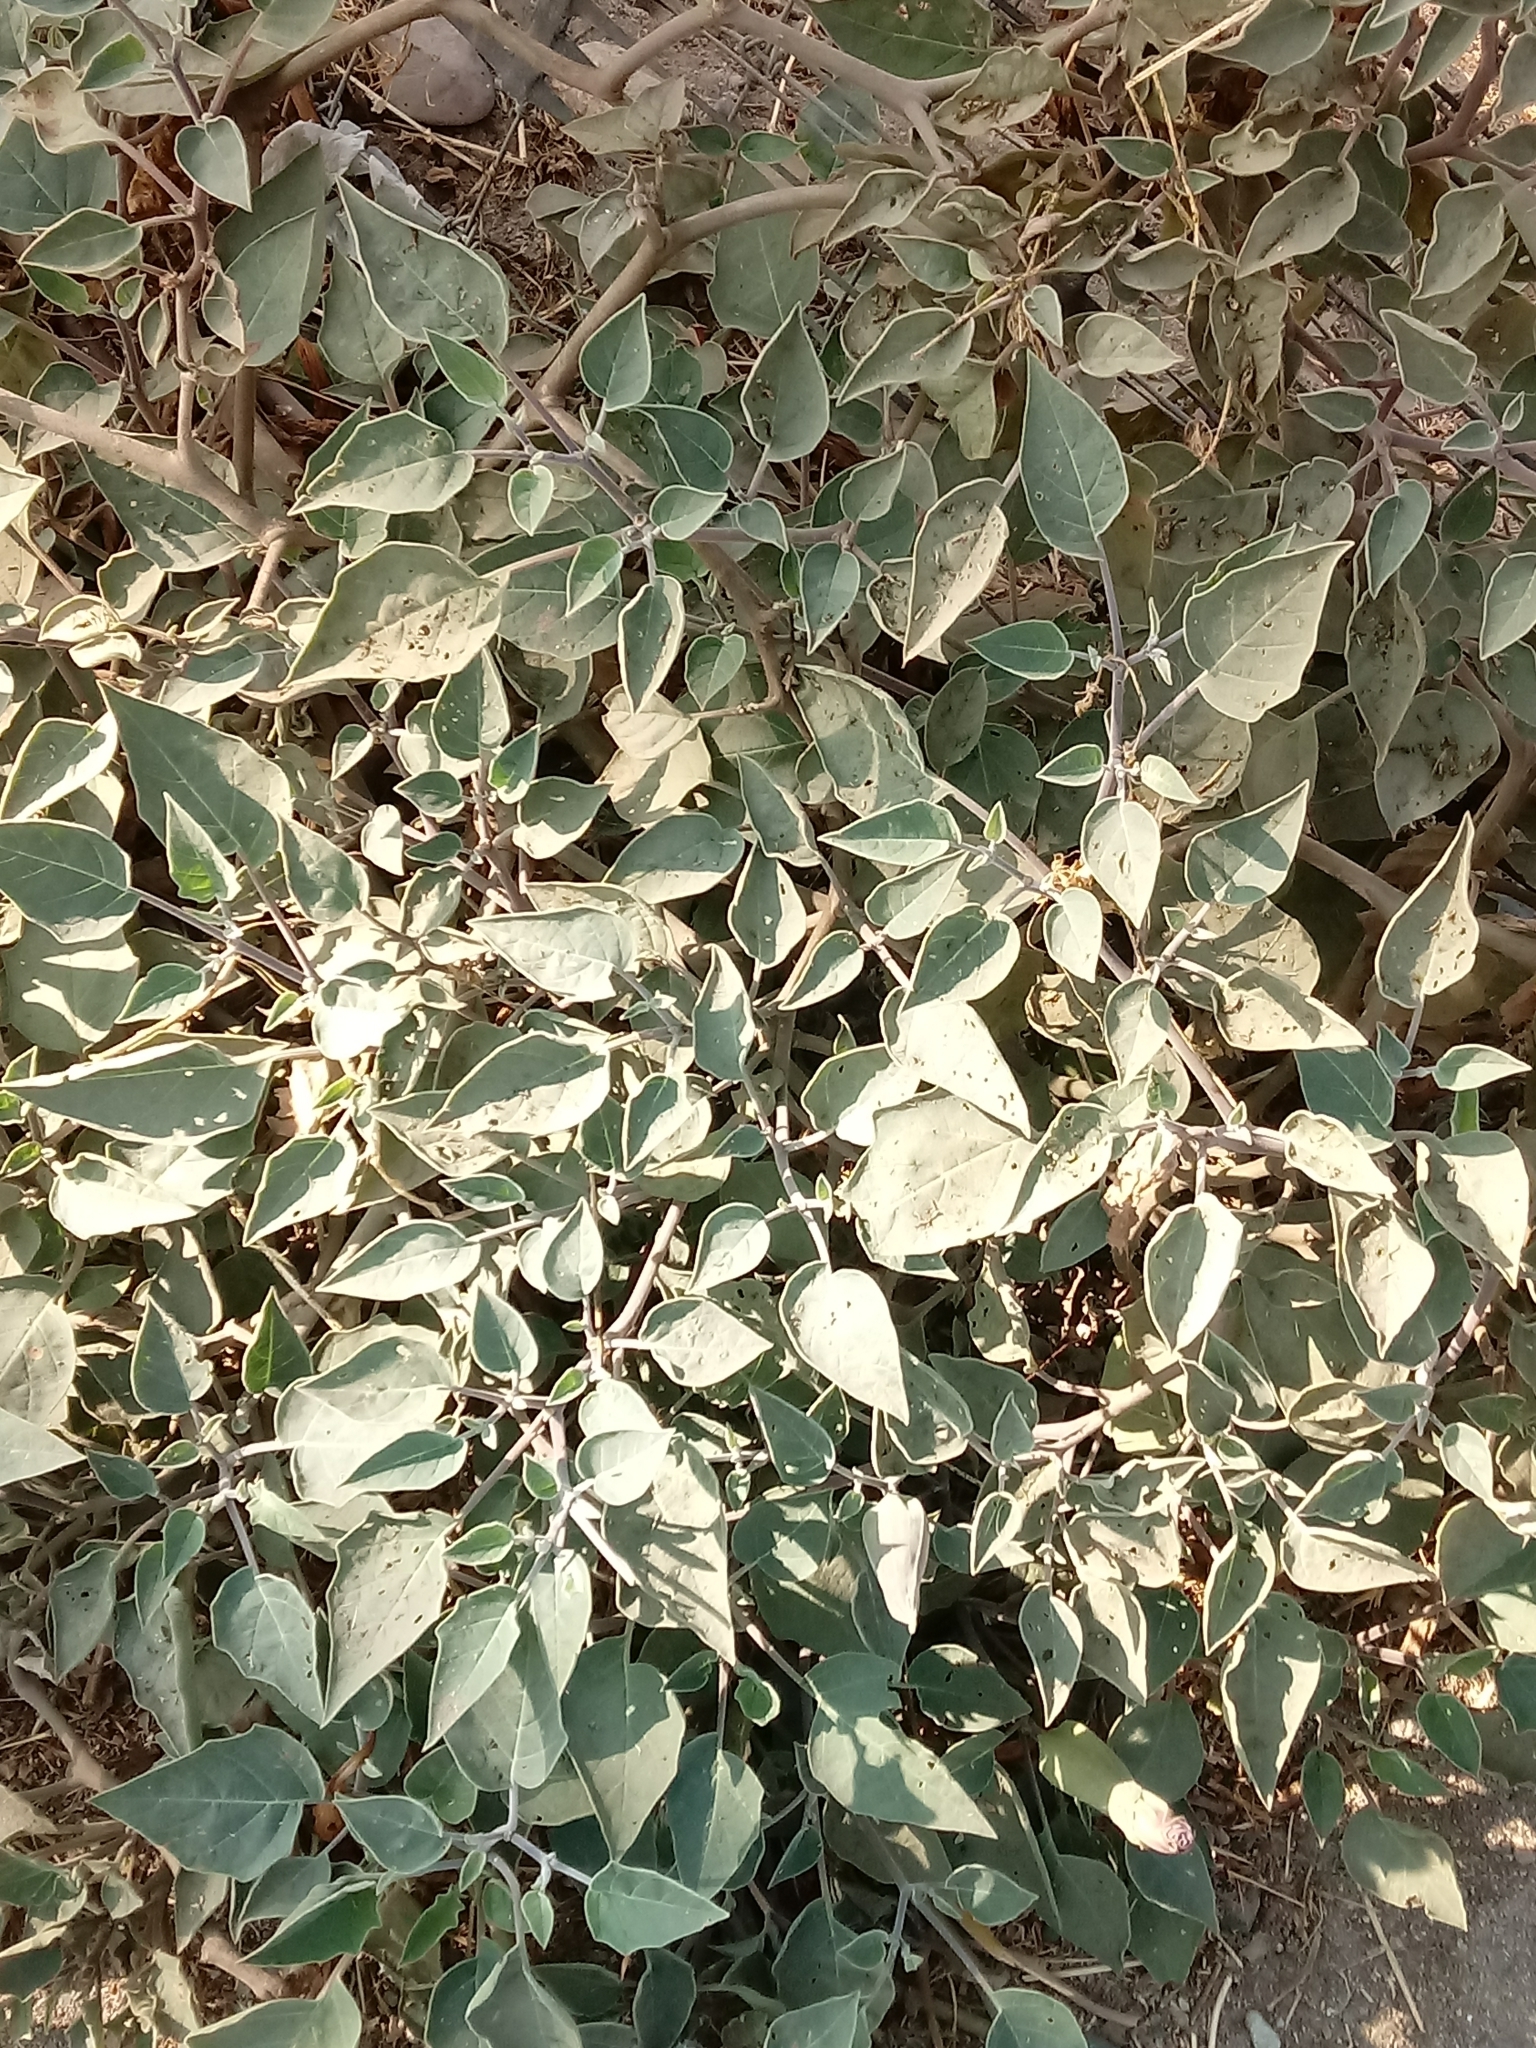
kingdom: Plantae
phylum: Tracheophyta
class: Magnoliopsida
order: Solanales
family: Solanaceae
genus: Datura
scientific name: Datura wrightii
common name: Sacred thorn-apple
